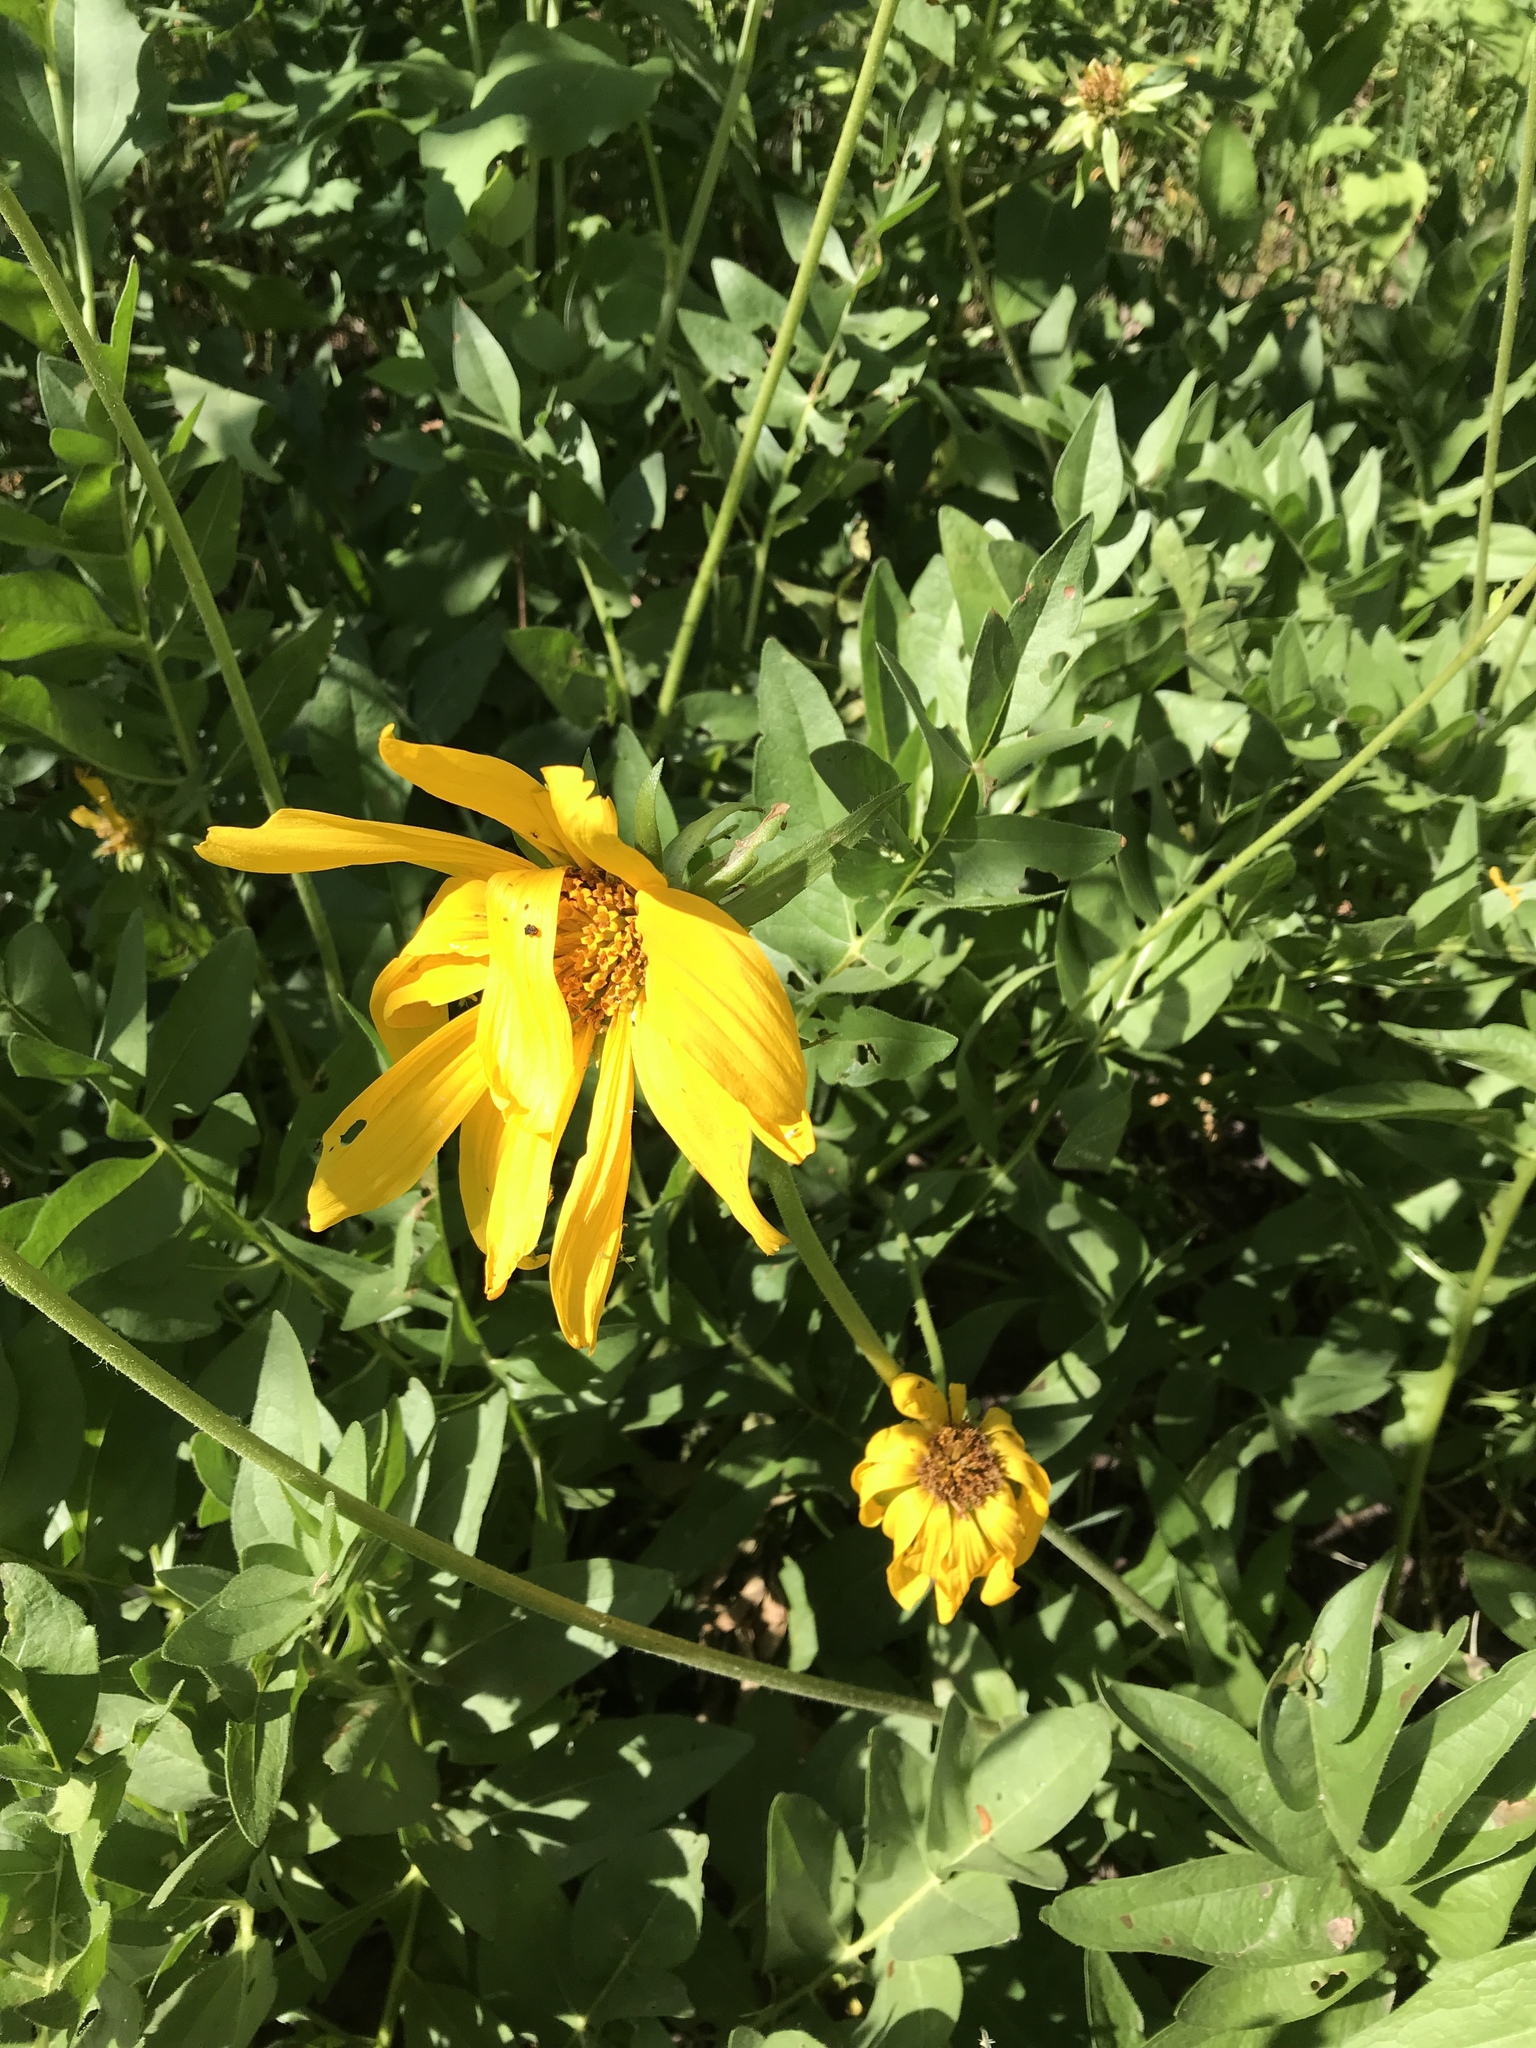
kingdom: Plantae
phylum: Tracheophyta
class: Magnoliopsida
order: Asterales
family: Asteraceae
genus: Balsamorhiza
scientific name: Balsamorhiza macrophylla
